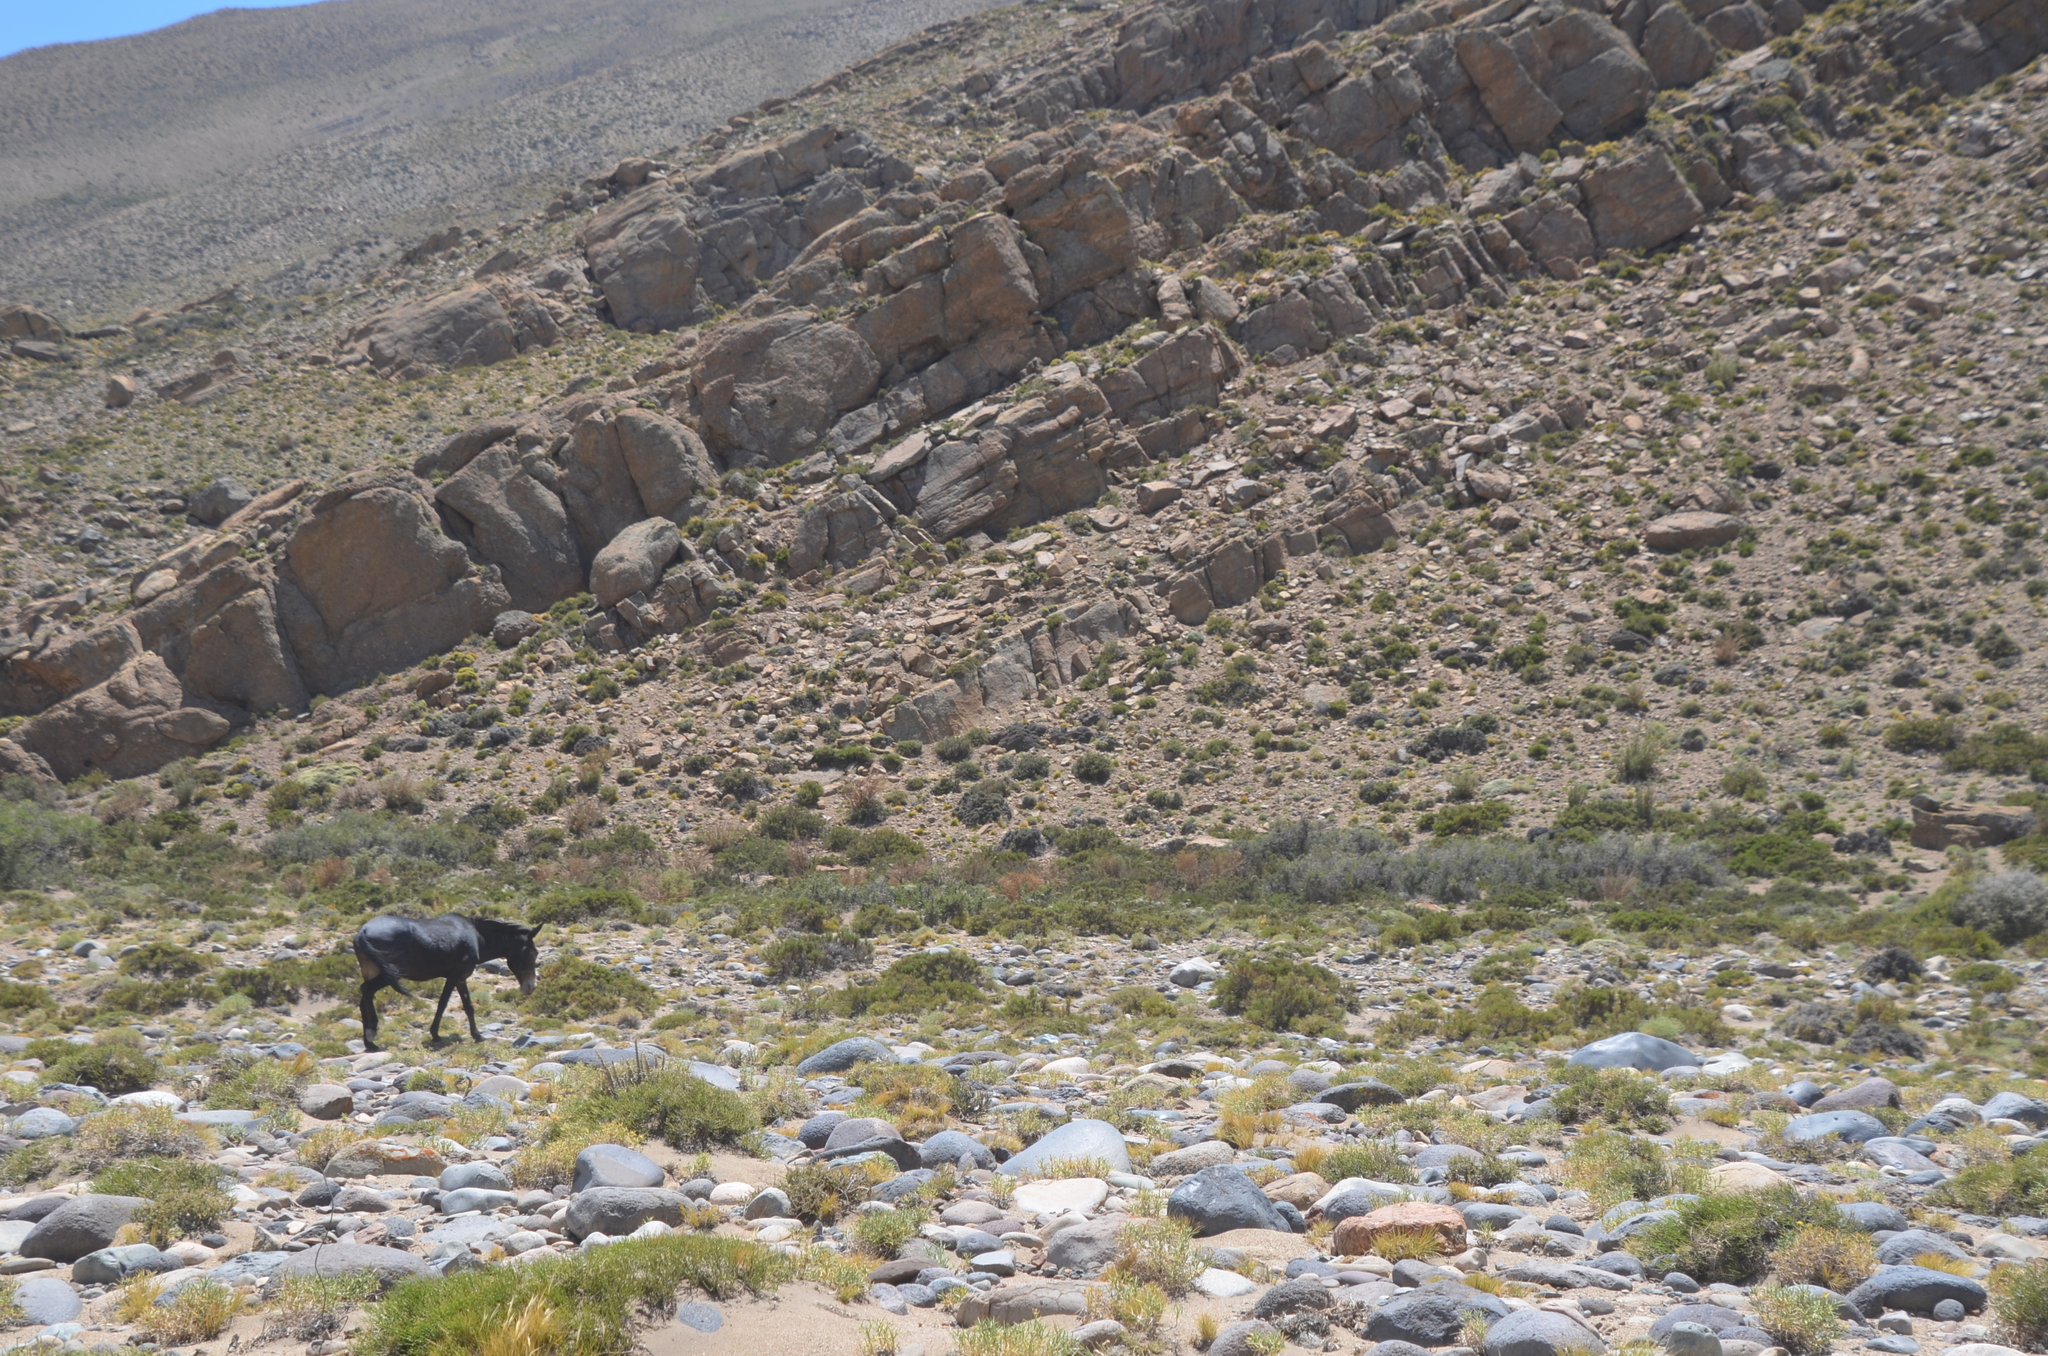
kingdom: Animalia
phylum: Chordata
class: Mammalia
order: Perissodactyla
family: Equidae
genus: Equus
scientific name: Equus
